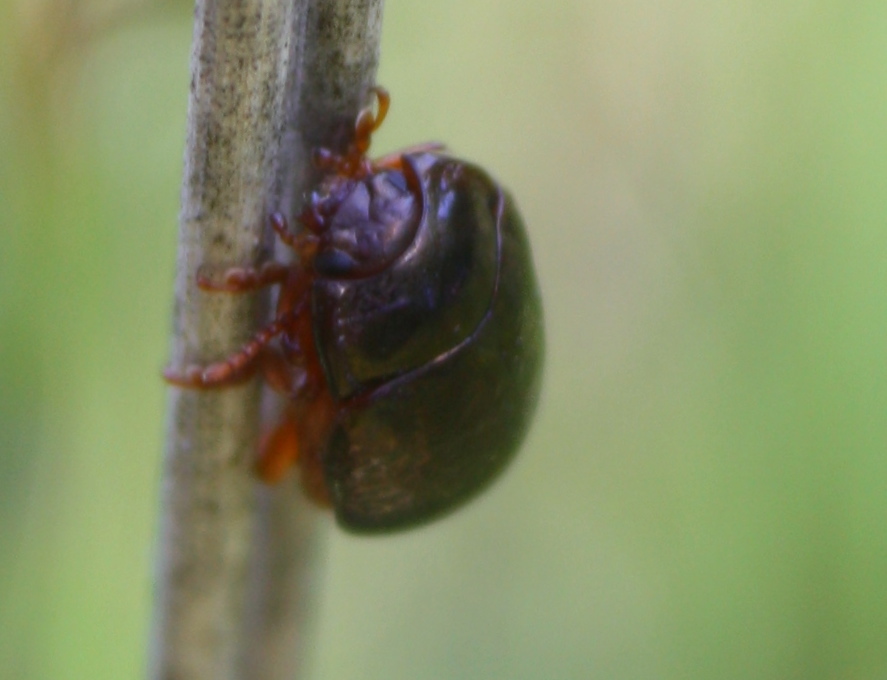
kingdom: Animalia
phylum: Arthropoda
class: Insecta
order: Coleoptera
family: Chrysomelidae
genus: Chrysolina
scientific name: Chrysolina bankii
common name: Leaf beetle
